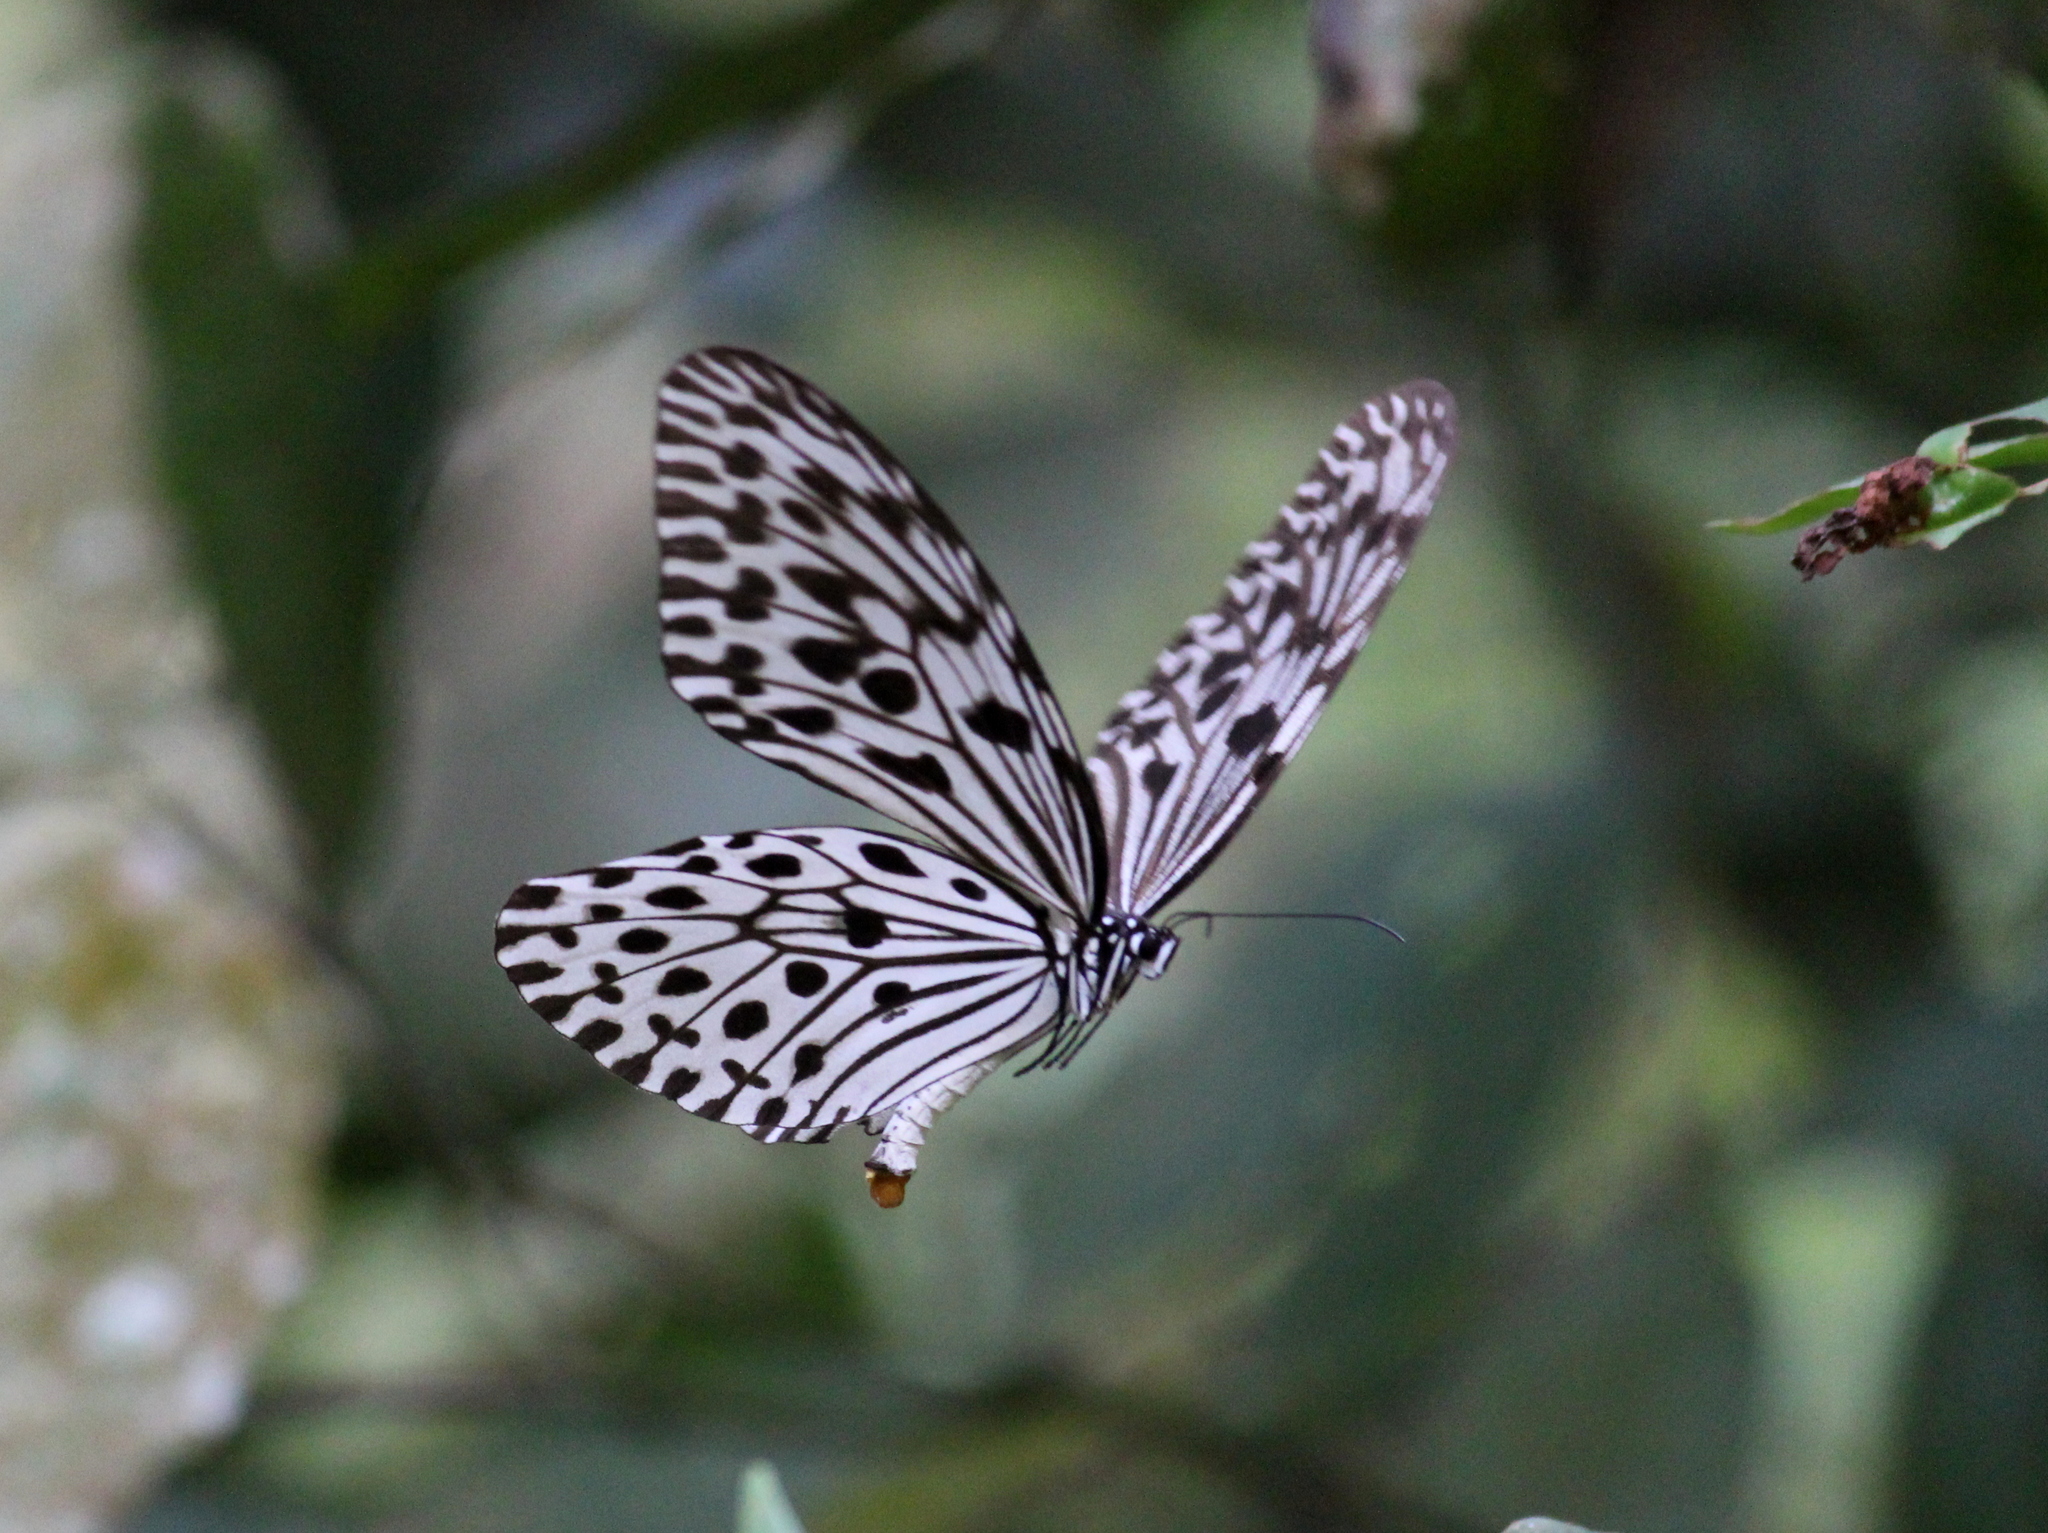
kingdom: Animalia
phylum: Arthropoda
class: Insecta
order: Lepidoptera
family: Nymphalidae
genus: Idea
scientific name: Idea malabarica
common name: Malabar tree-nymph
